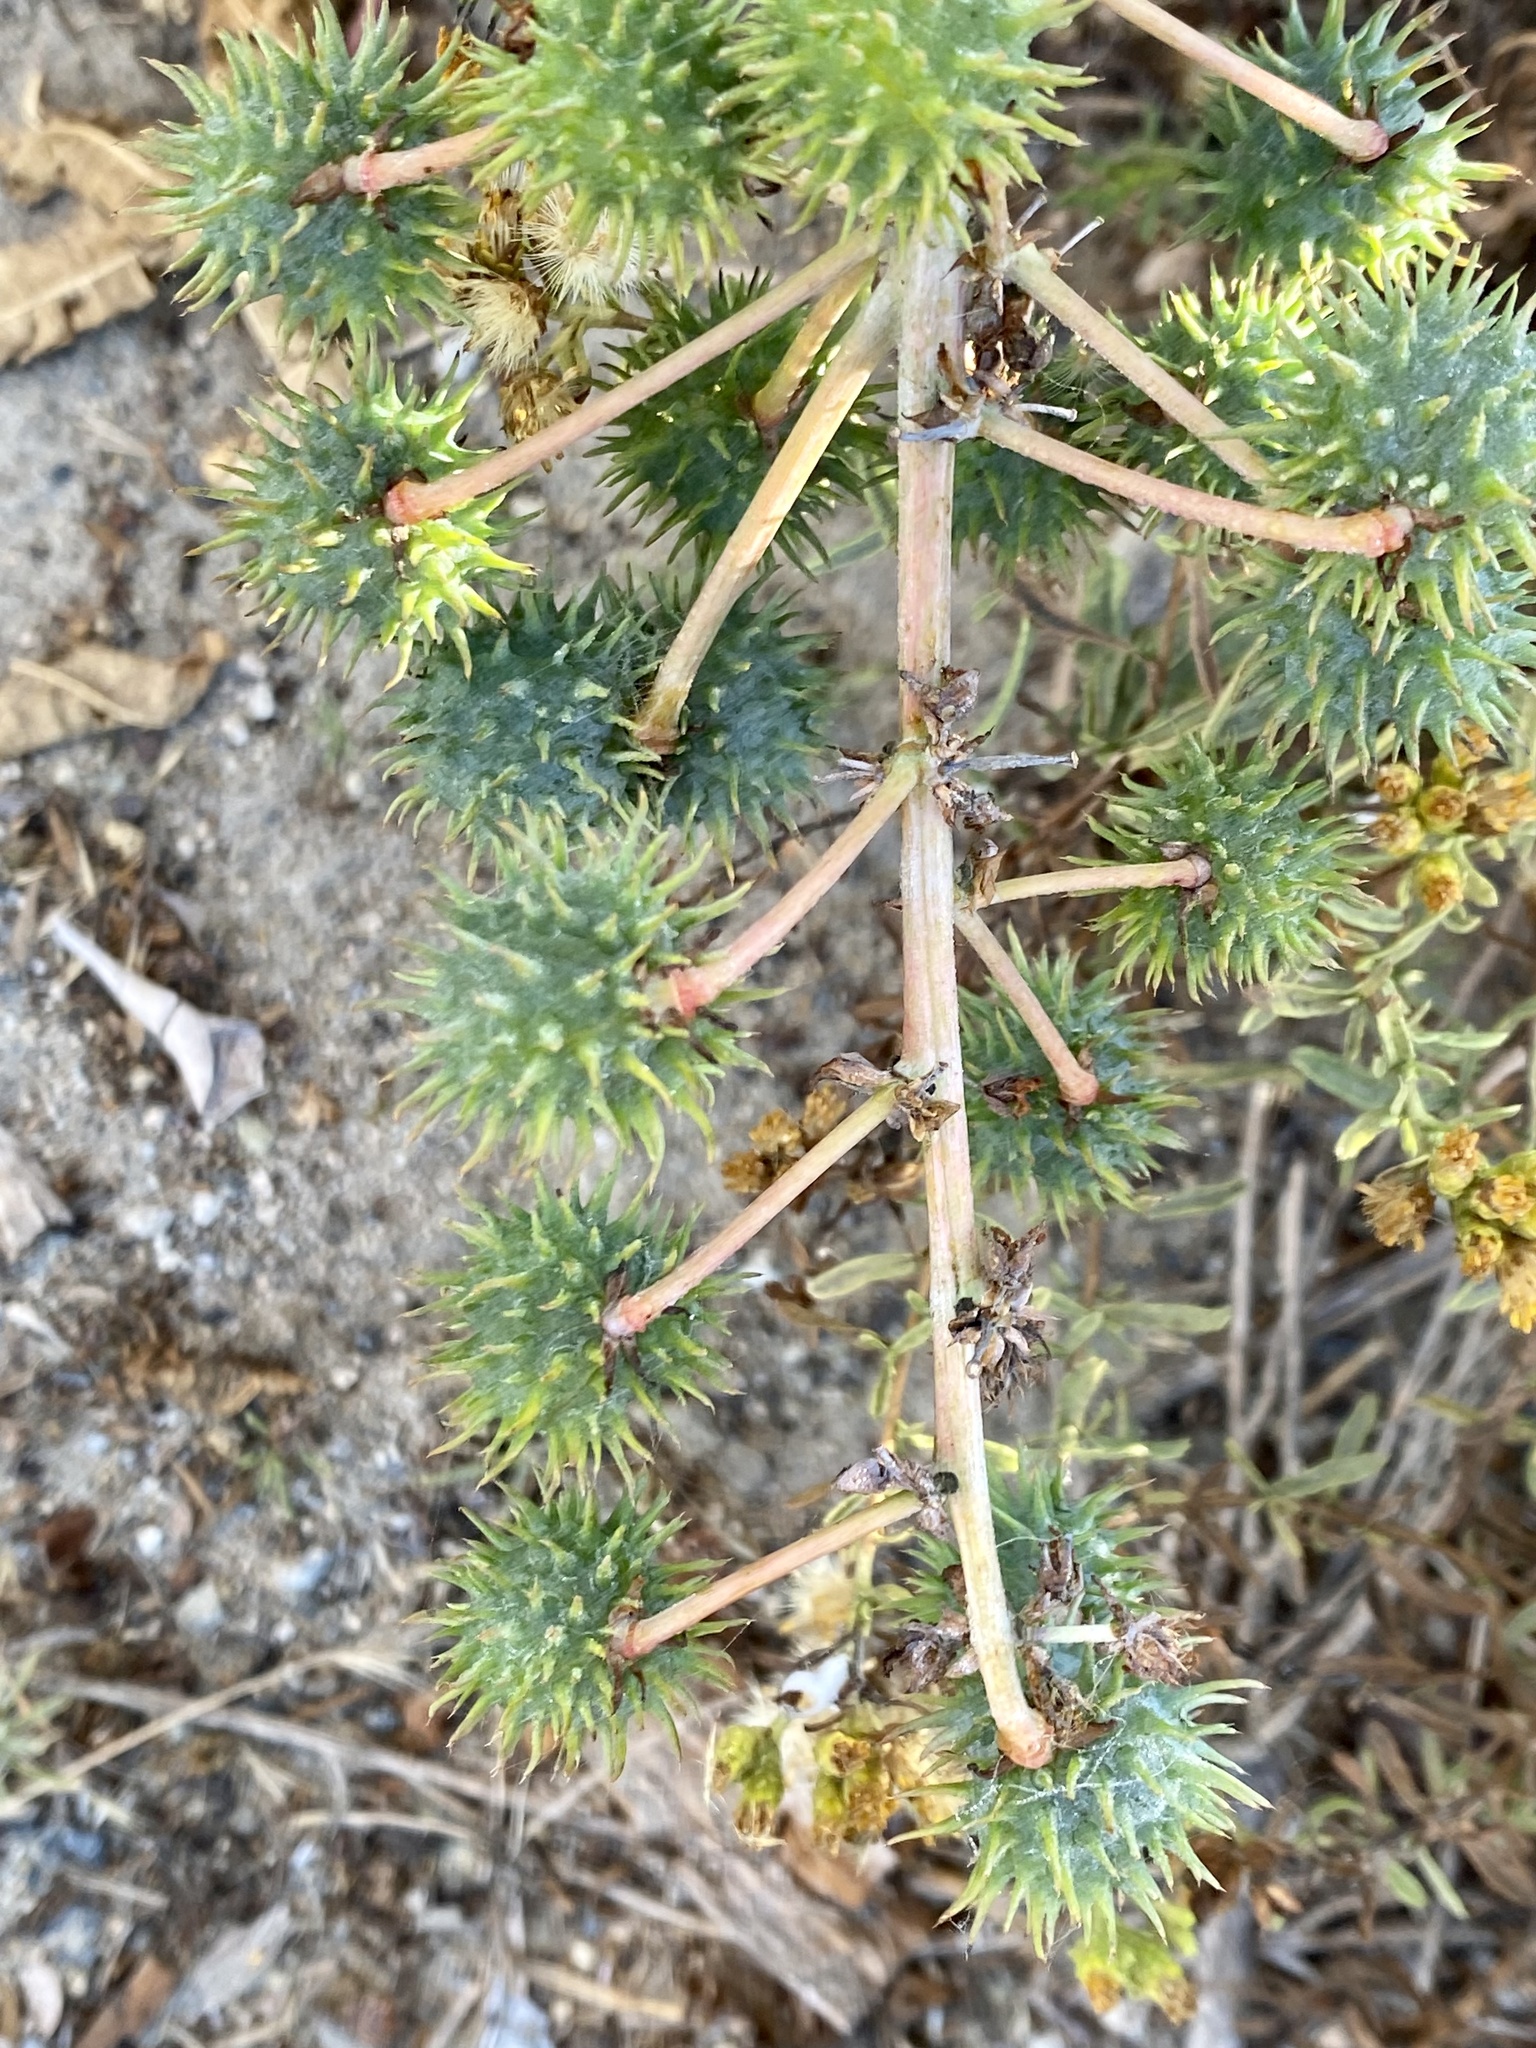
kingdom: Plantae
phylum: Tracheophyta
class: Magnoliopsida
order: Malpighiales
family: Euphorbiaceae
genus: Ricinus
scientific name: Ricinus communis
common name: Castor-oil-plant
